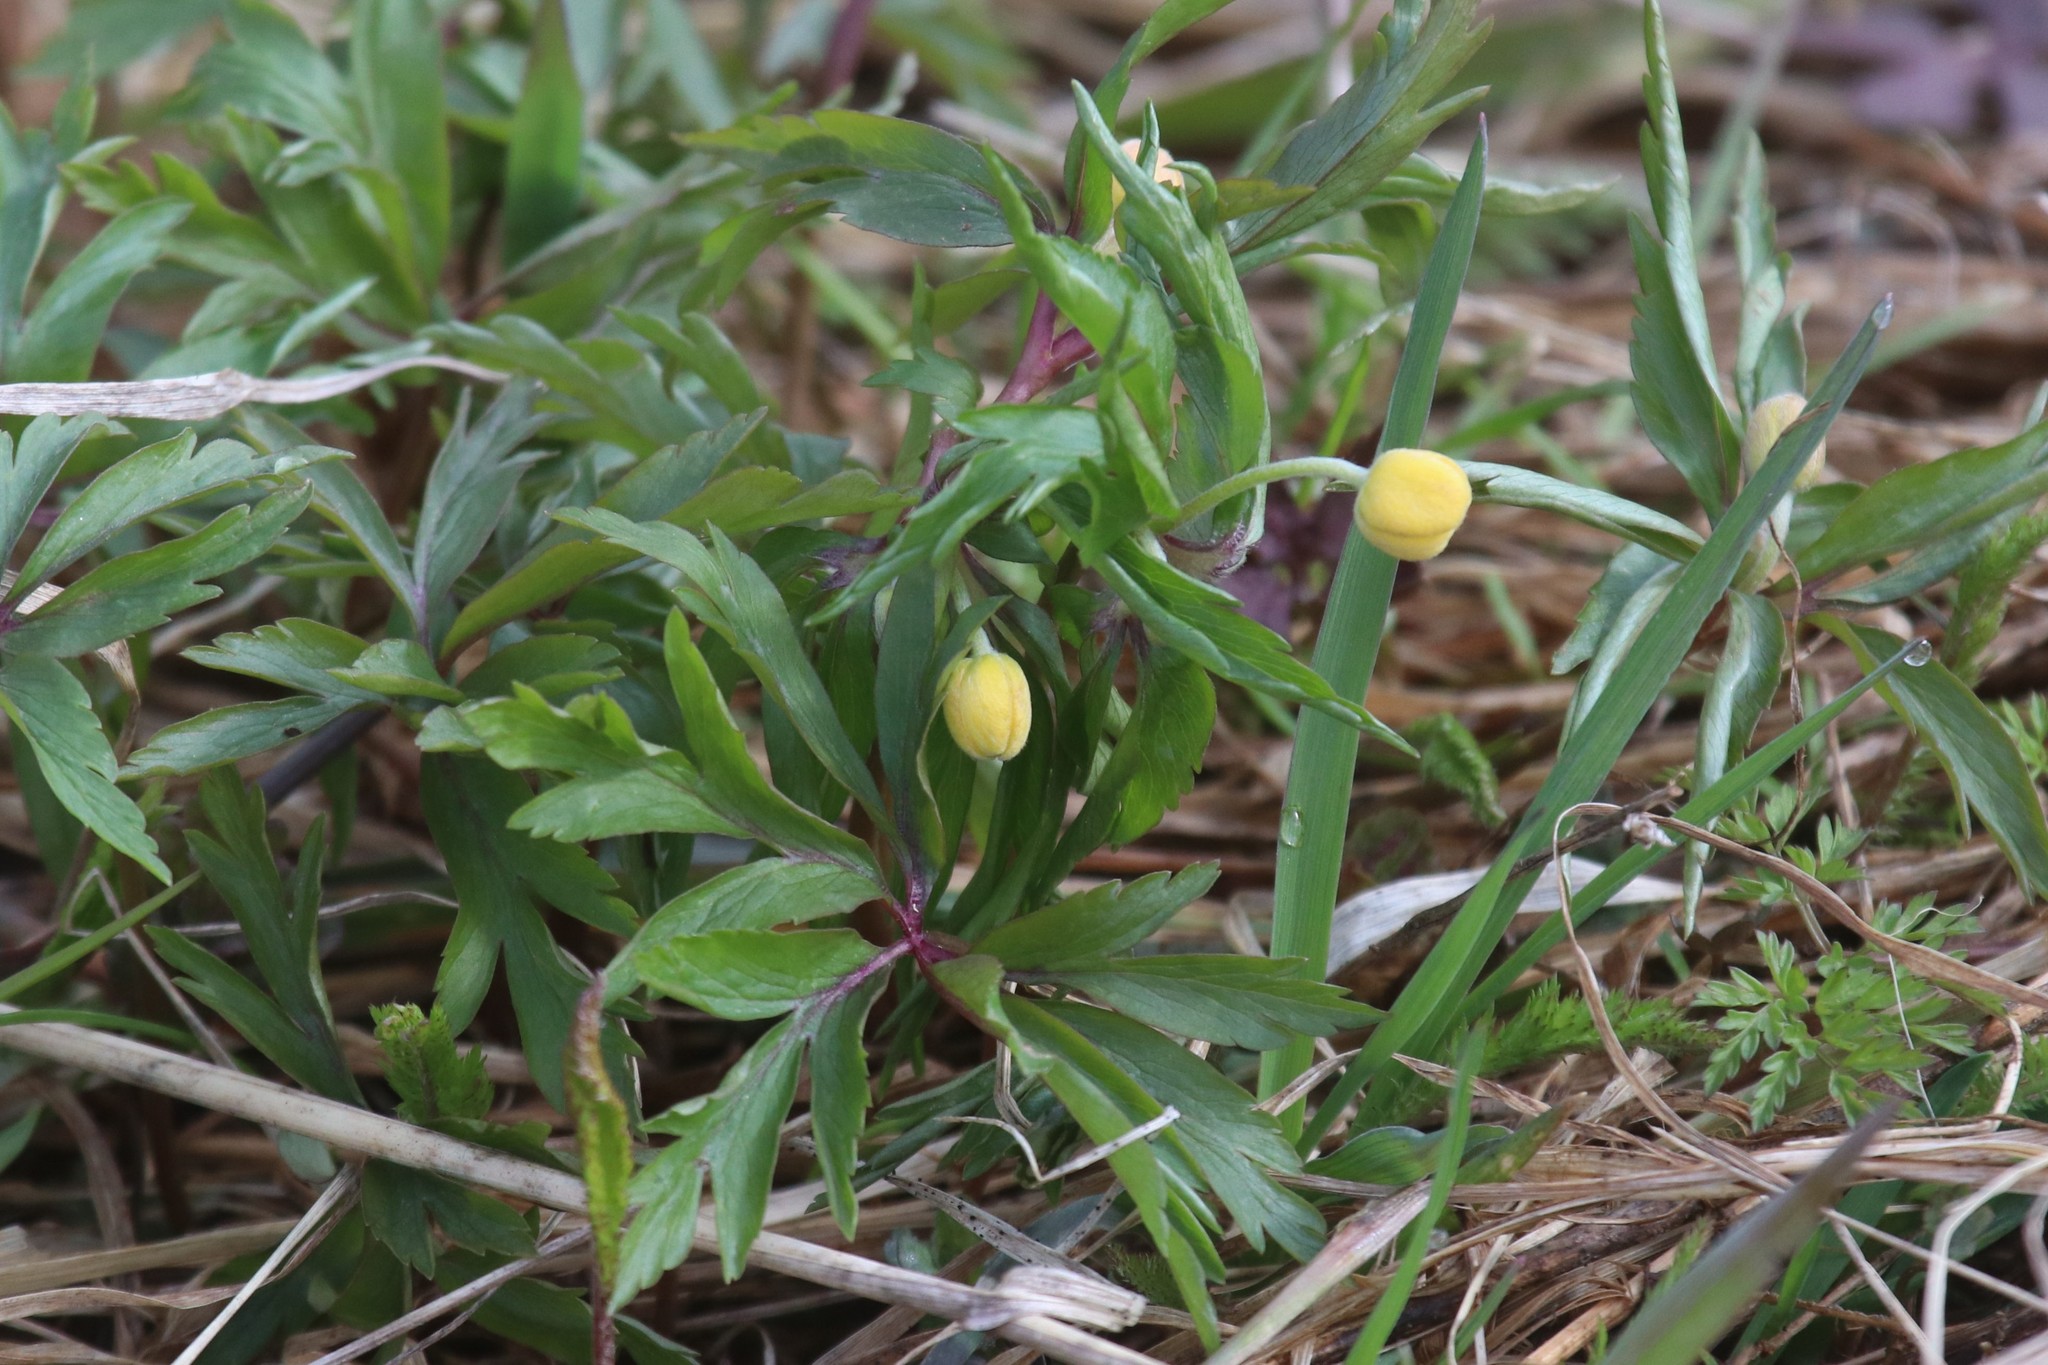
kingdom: Plantae
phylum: Tracheophyta
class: Magnoliopsida
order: Ranunculales
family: Ranunculaceae
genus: Anemone
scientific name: Anemone ranunculoides
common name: Yellow anemone
